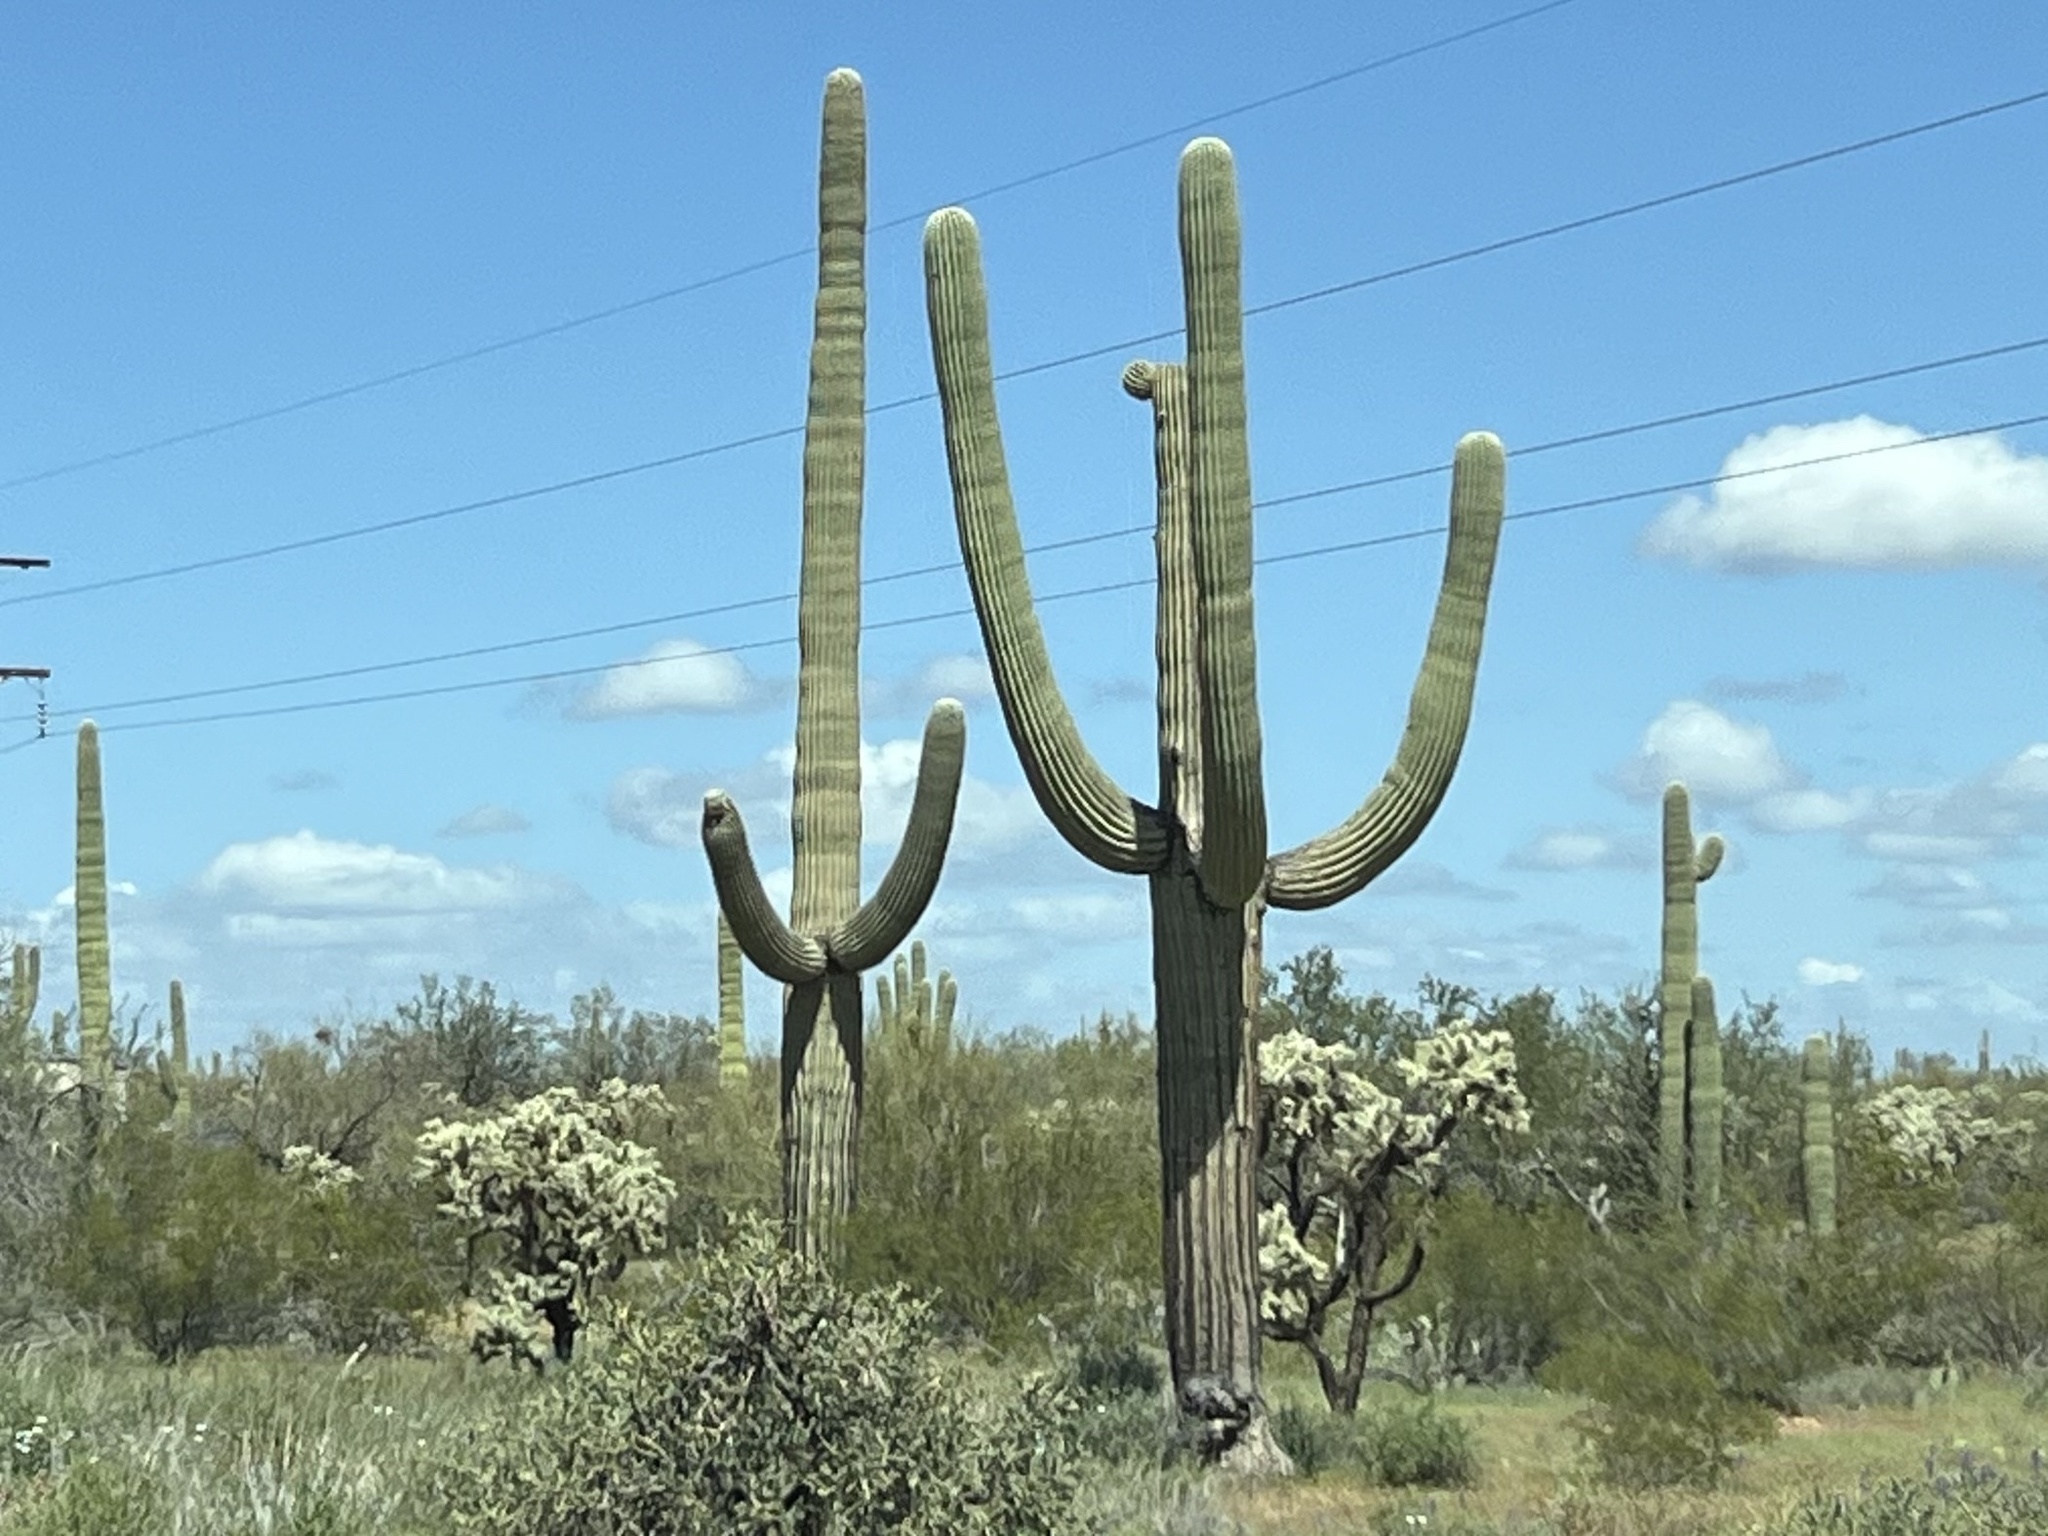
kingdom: Plantae
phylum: Tracheophyta
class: Magnoliopsida
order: Caryophyllales
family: Cactaceae
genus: Carnegiea
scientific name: Carnegiea gigantea
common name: Saguaro
